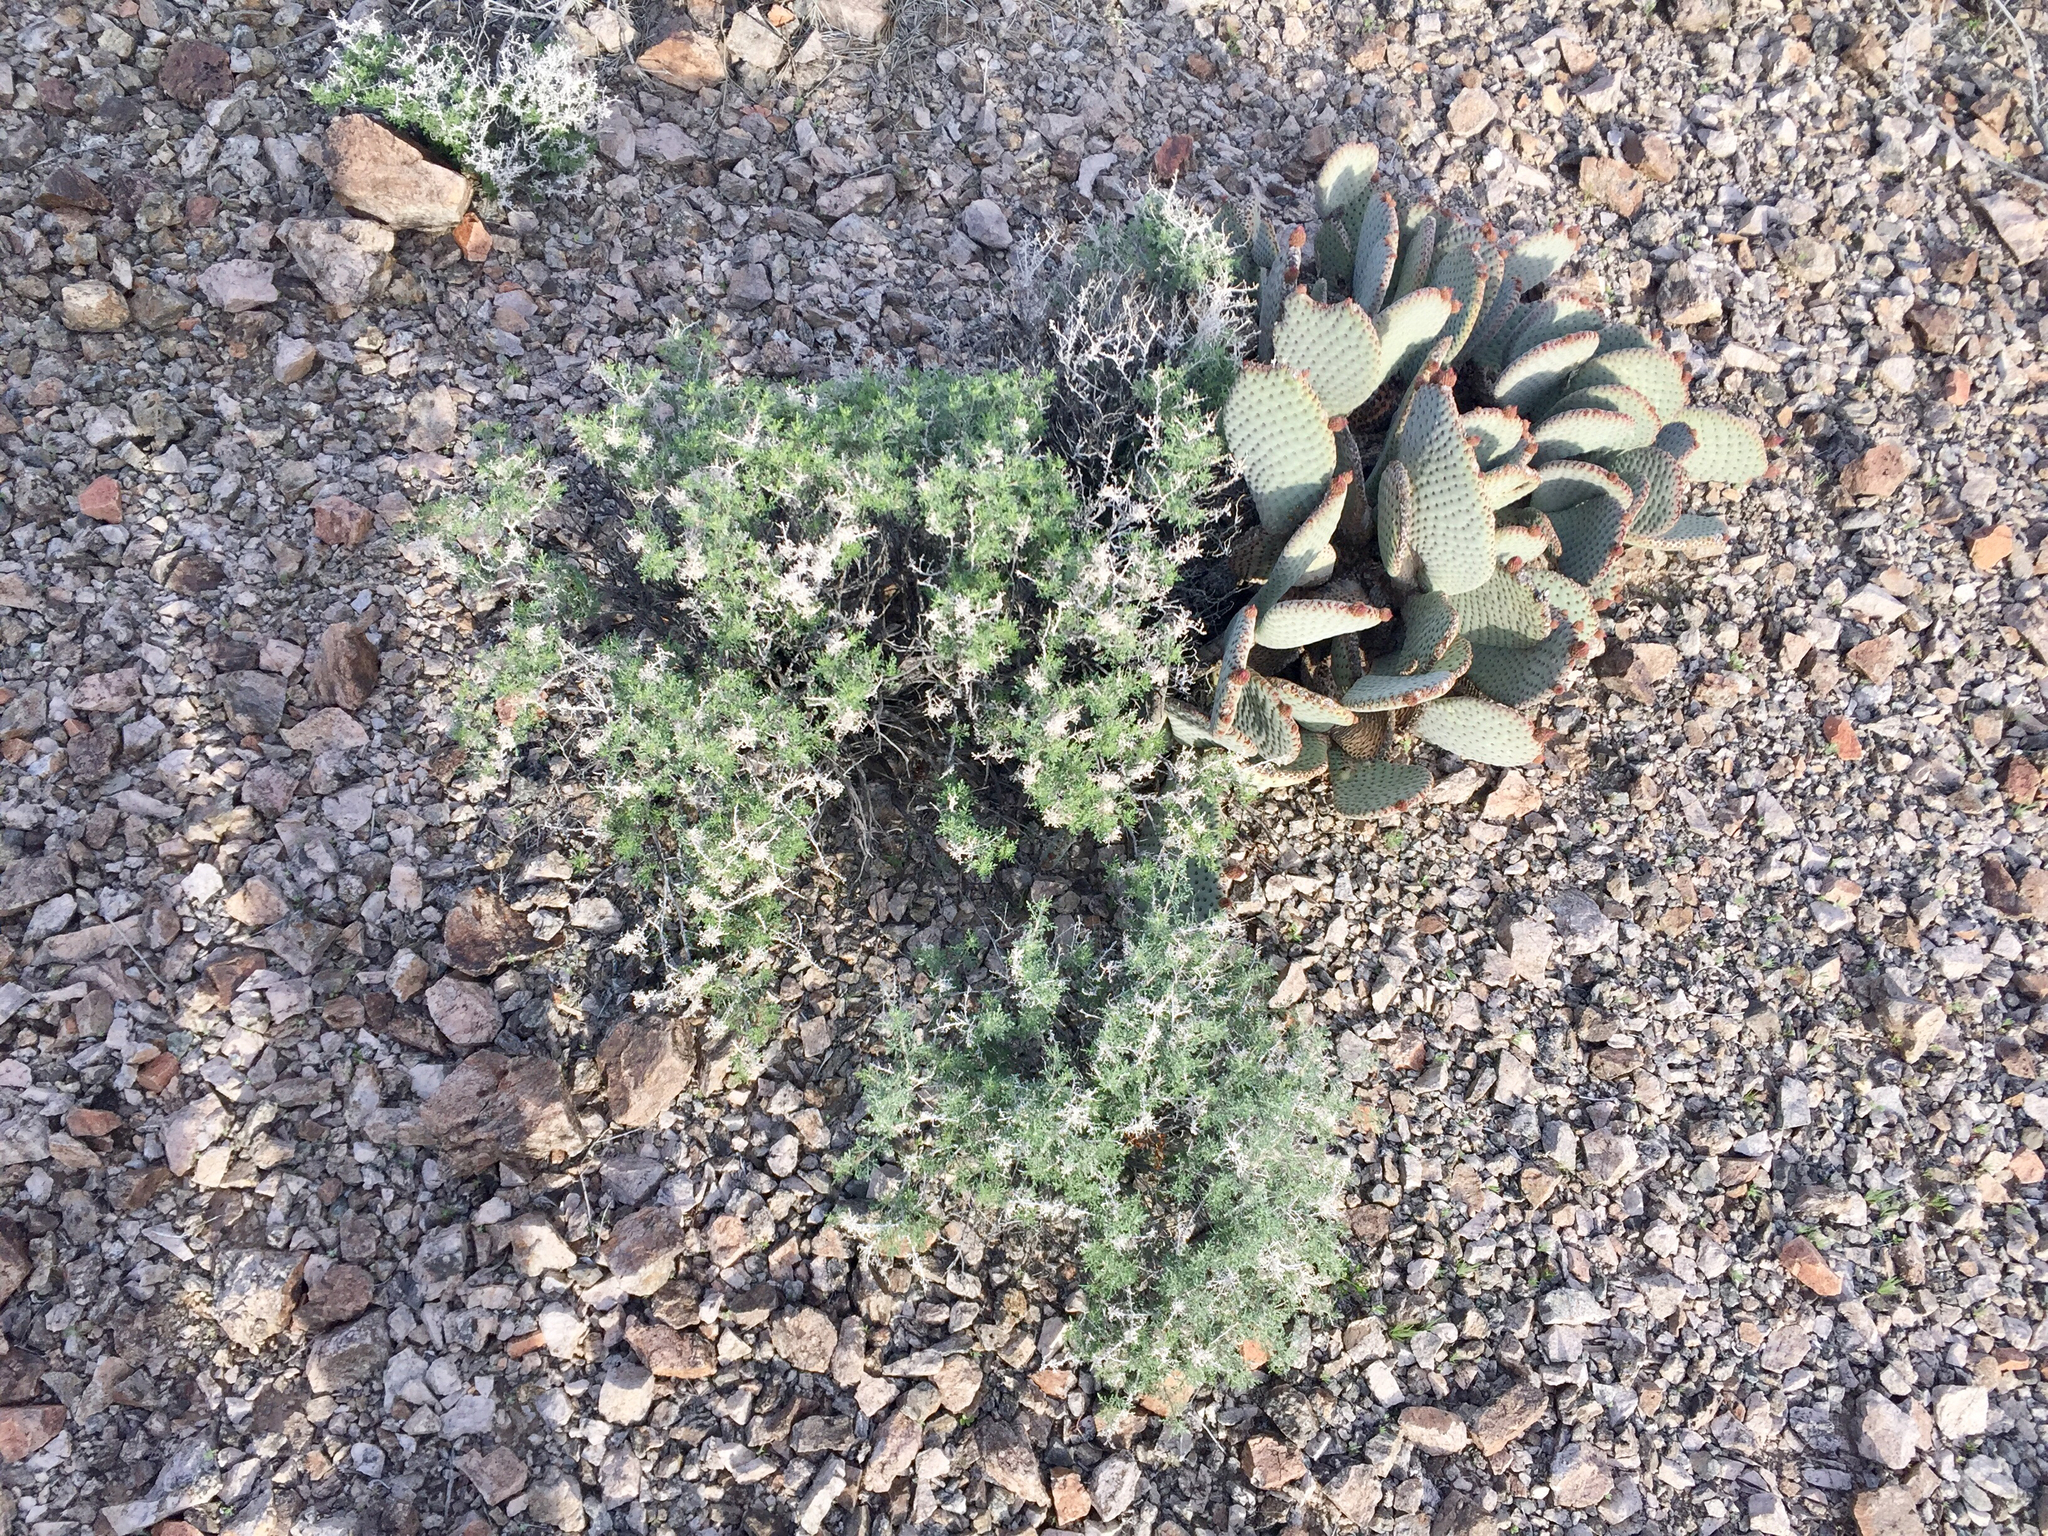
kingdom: Plantae
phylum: Tracheophyta
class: Magnoliopsida
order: Asterales
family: Asteraceae
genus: Ambrosia
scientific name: Ambrosia dumosa
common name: Bur-sage
